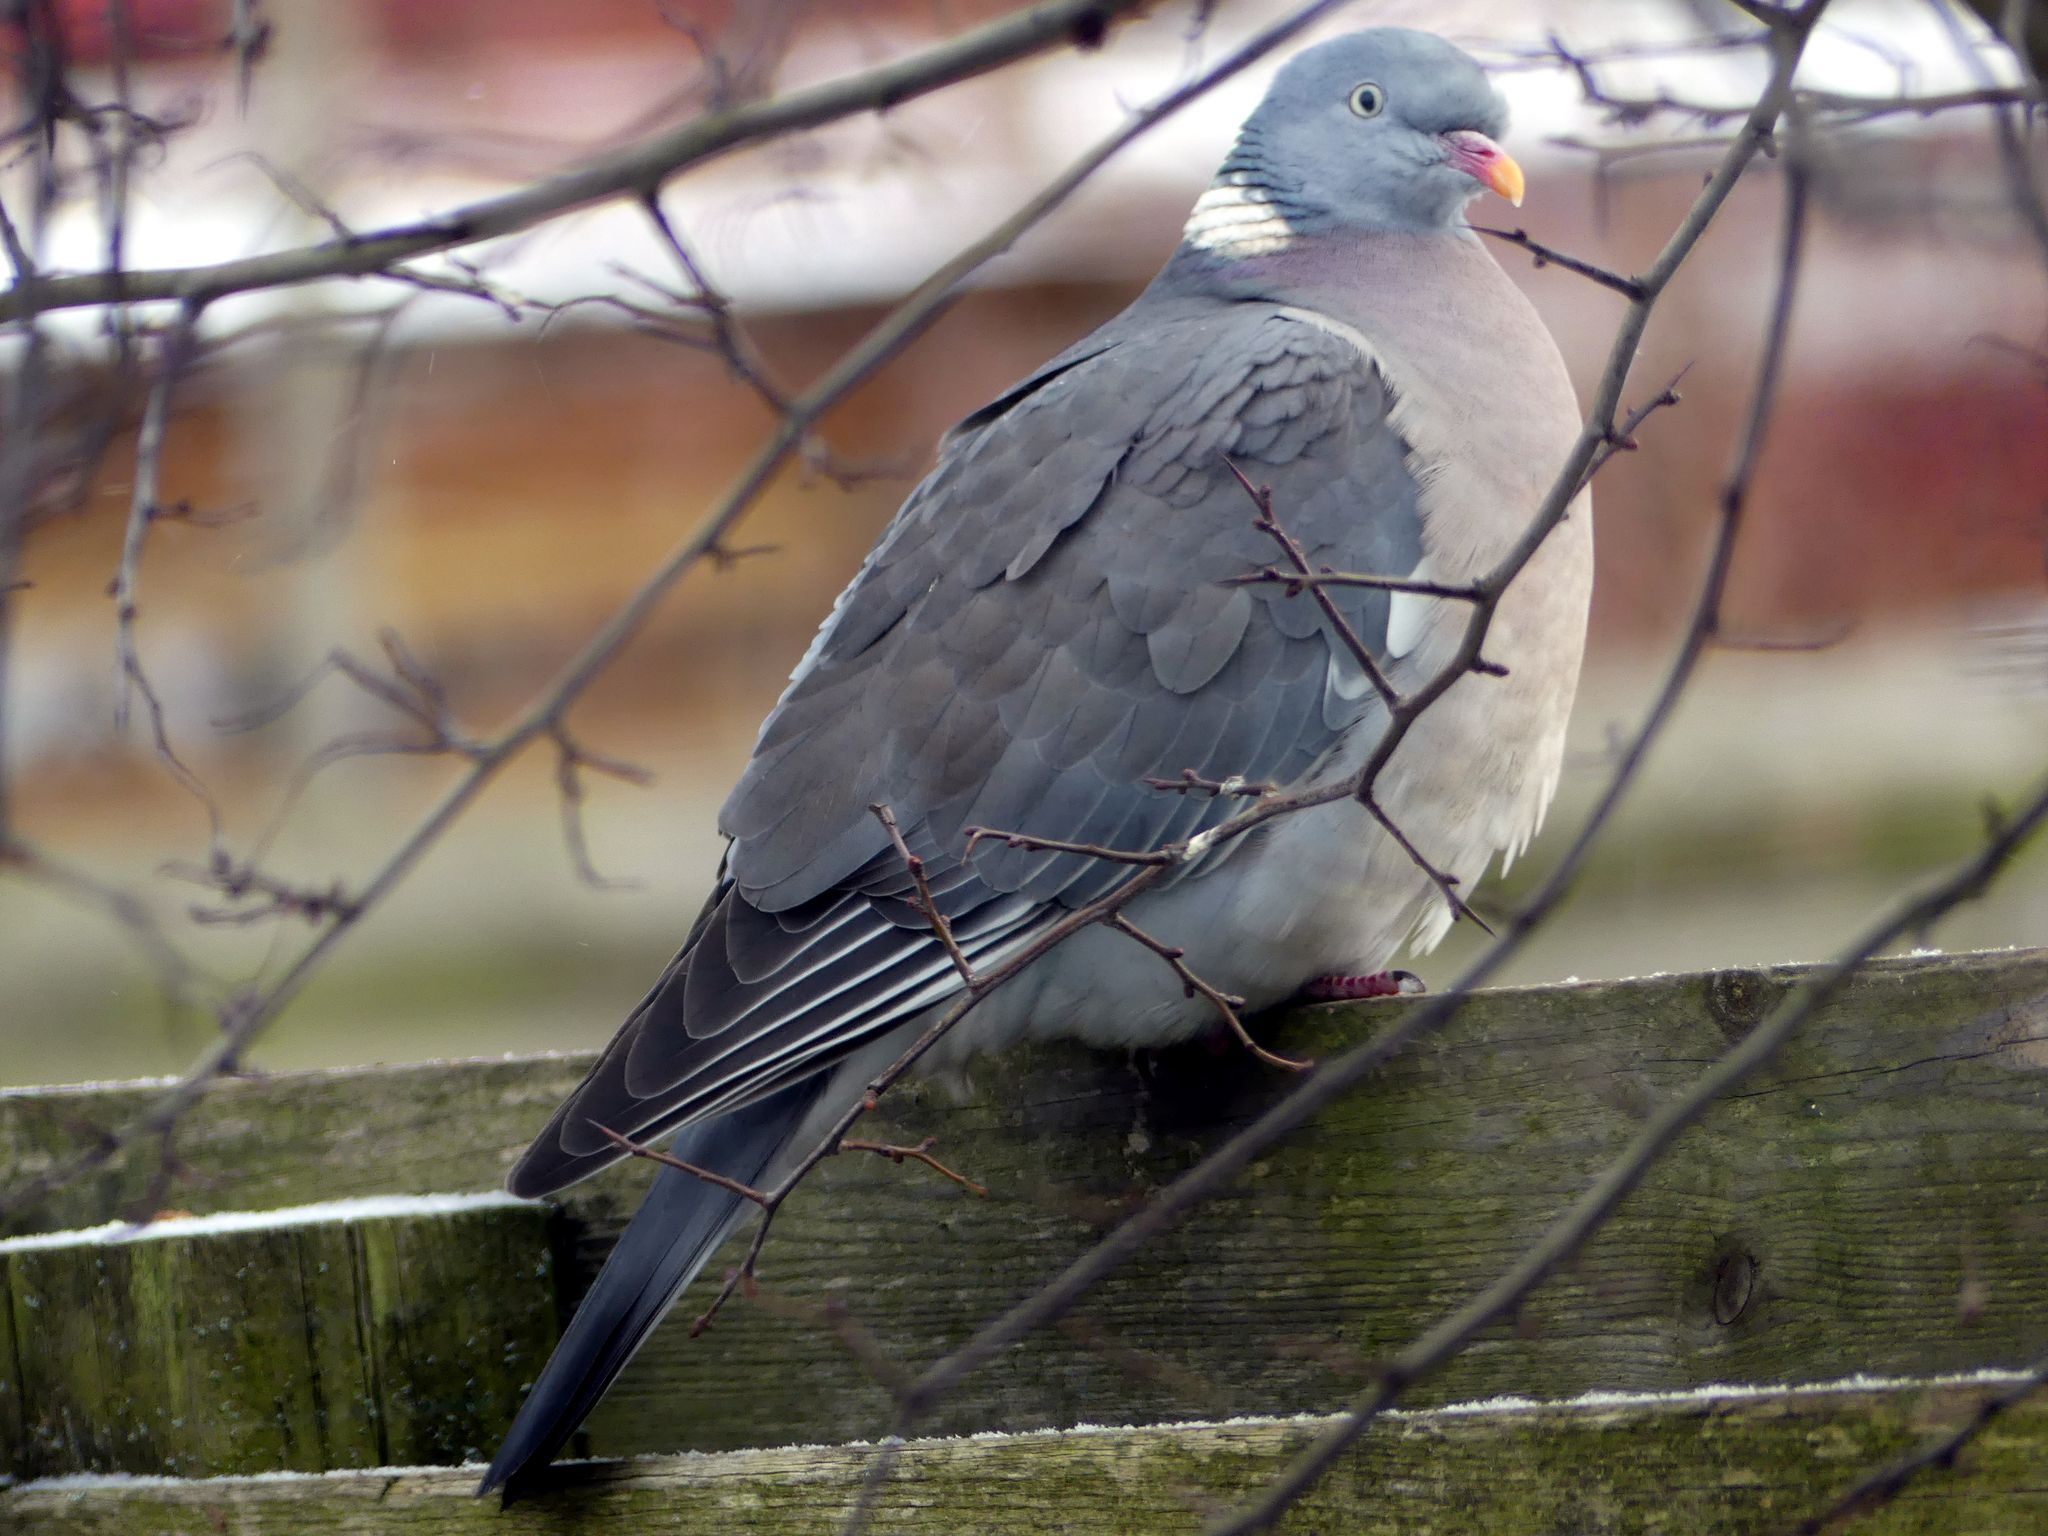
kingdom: Animalia
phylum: Chordata
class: Aves
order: Columbiformes
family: Columbidae
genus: Columba
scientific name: Columba palumbus
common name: Common wood pigeon
